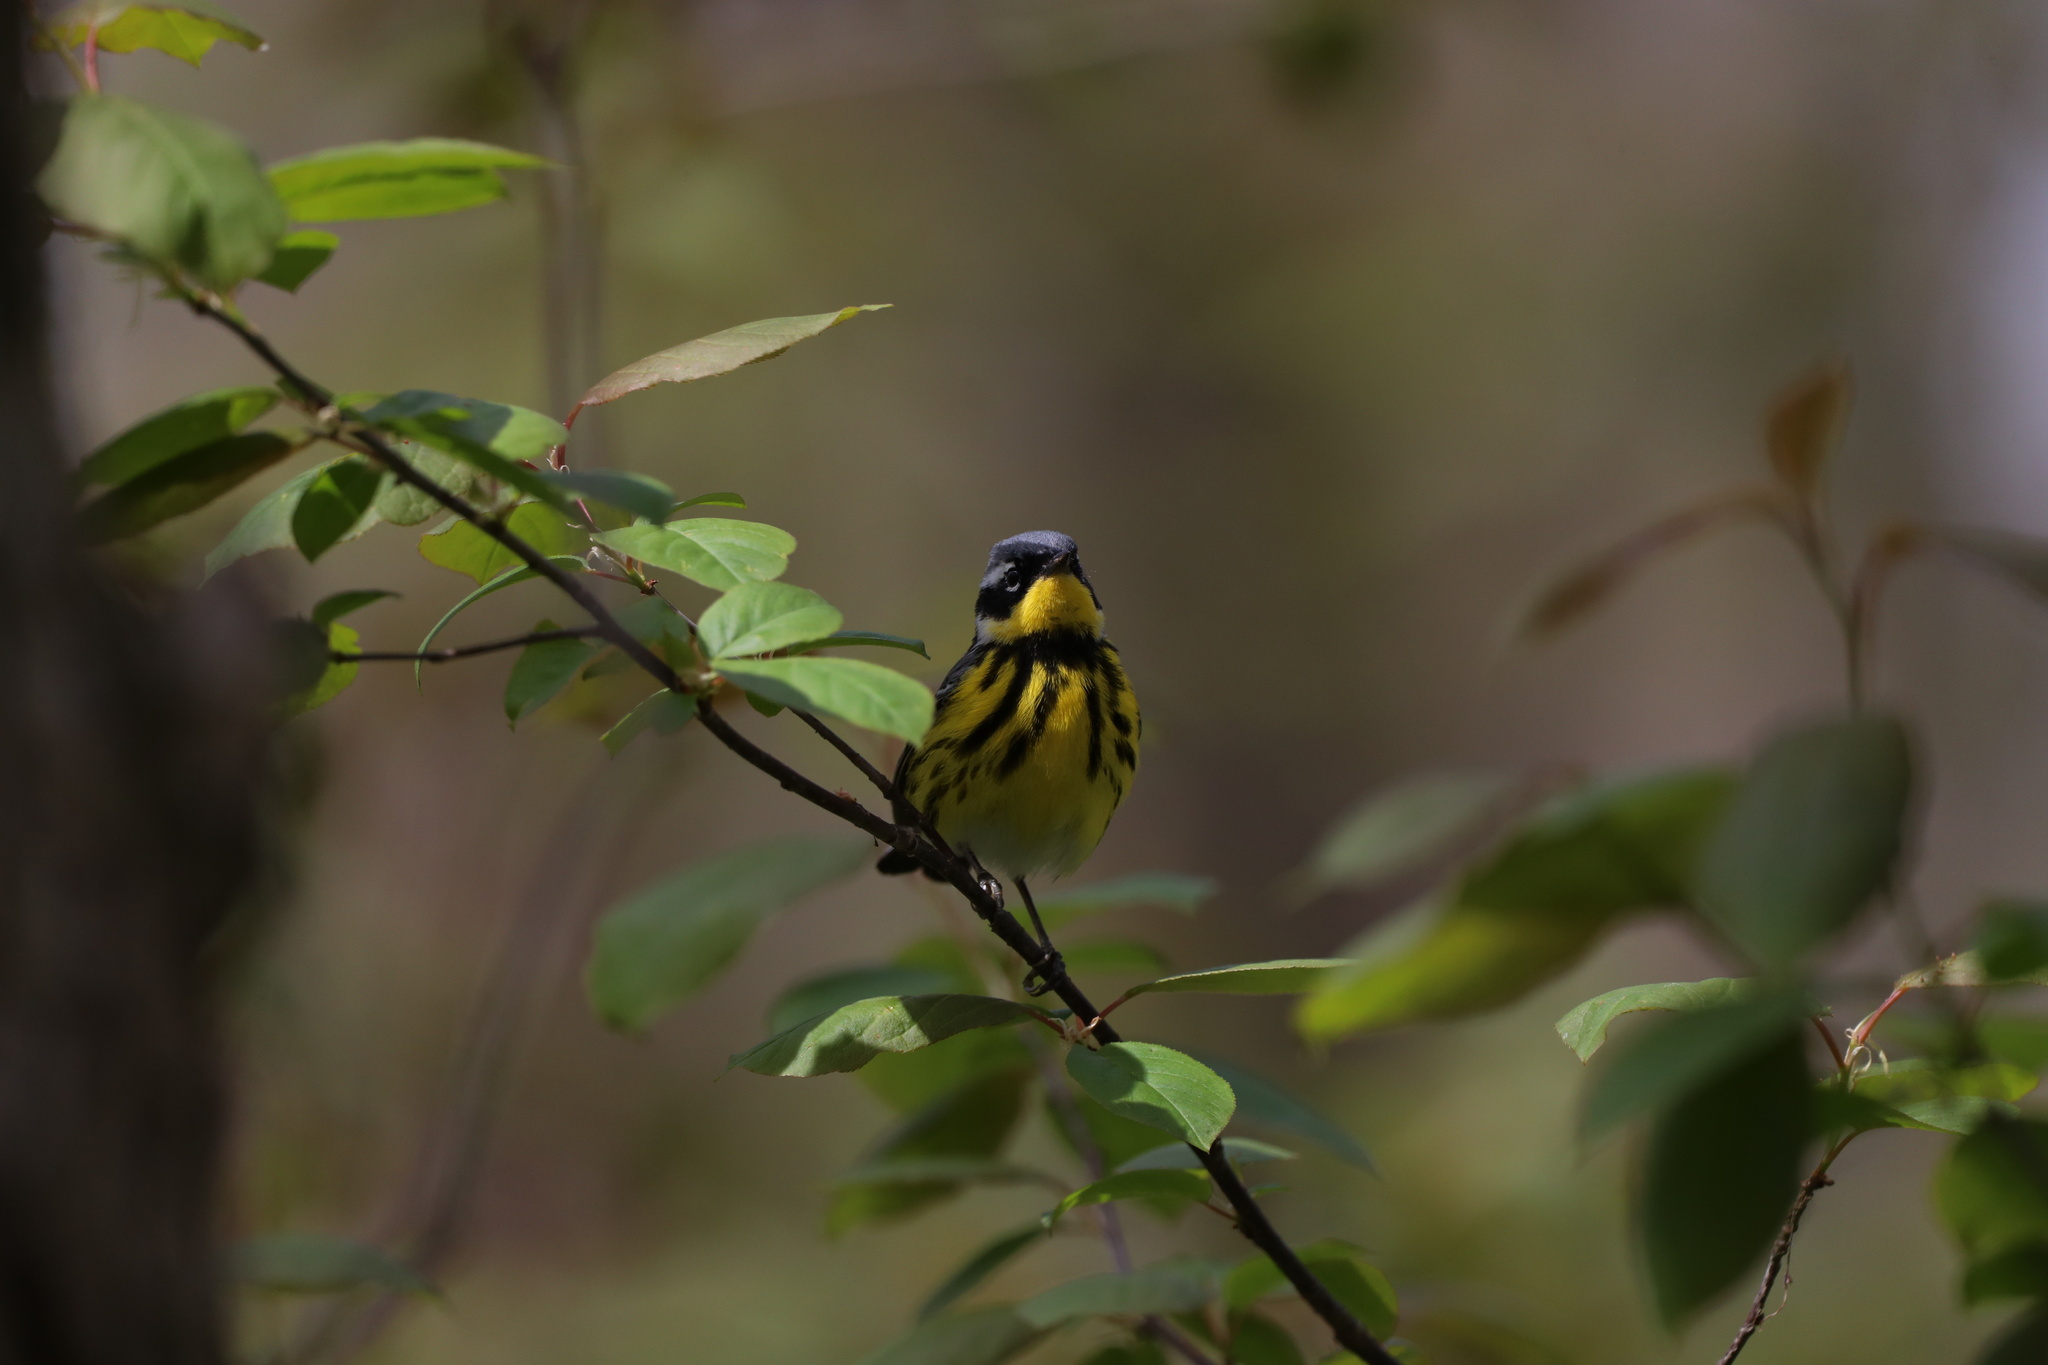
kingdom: Animalia
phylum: Chordata
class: Aves
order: Passeriformes
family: Parulidae
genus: Setophaga
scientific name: Setophaga magnolia
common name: Magnolia warbler
